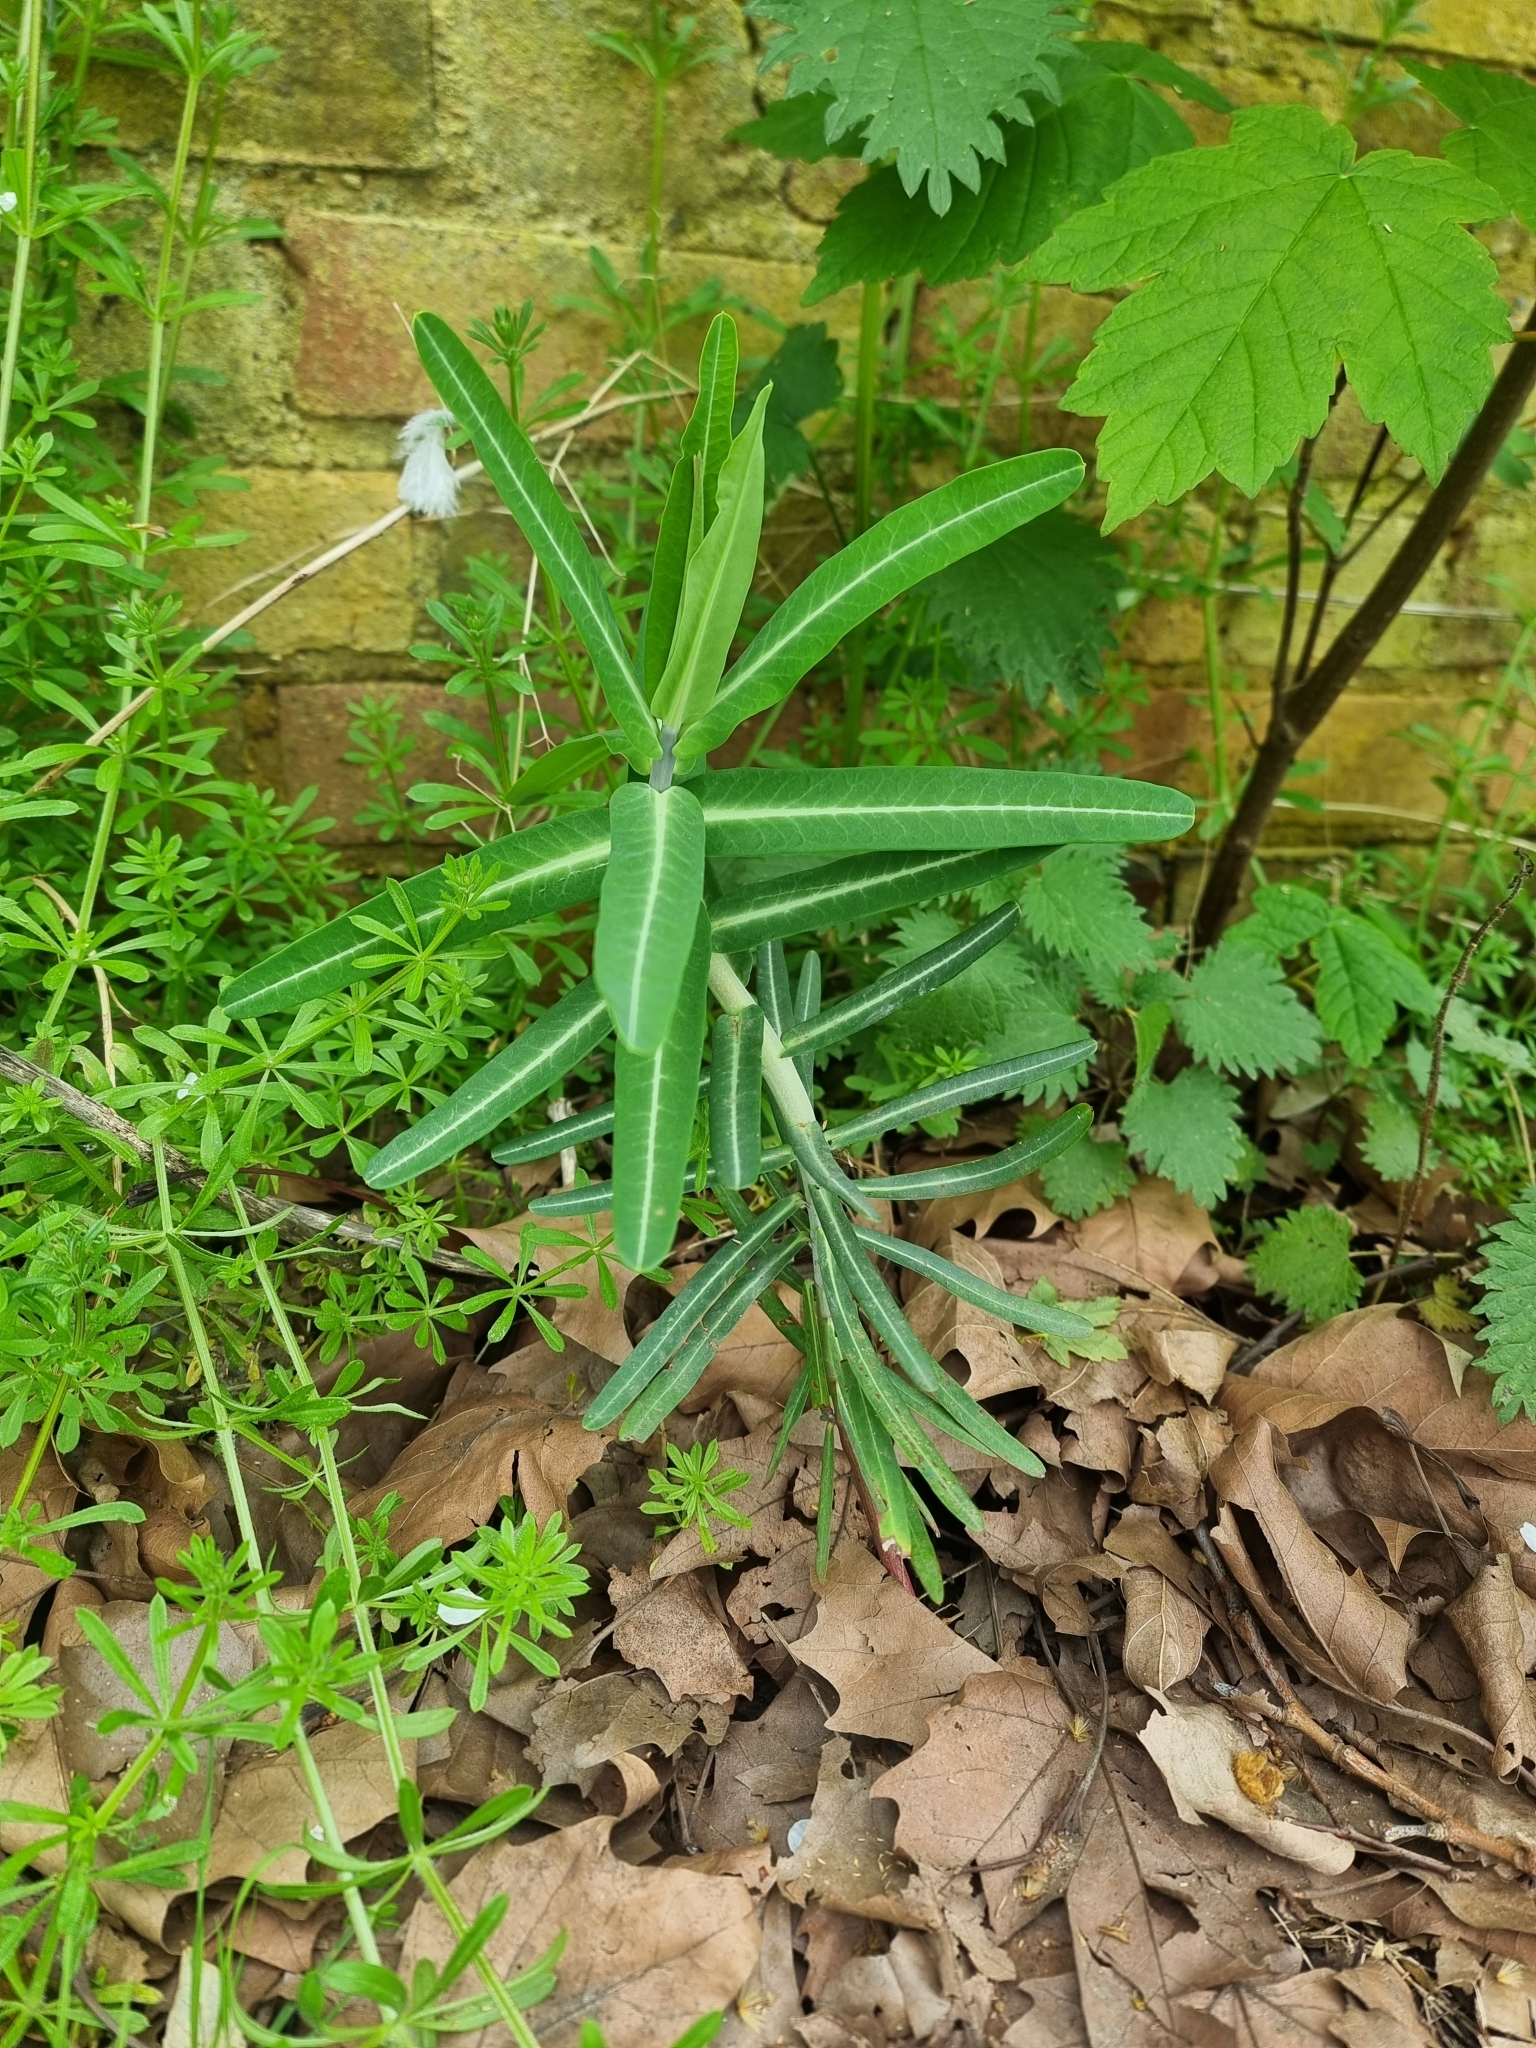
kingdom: Plantae
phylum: Tracheophyta
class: Magnoliopsida
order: Malpighiales
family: Euphorbiaceae
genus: Euphorbia
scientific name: Euphorbia lathyris
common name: Caper spurge
